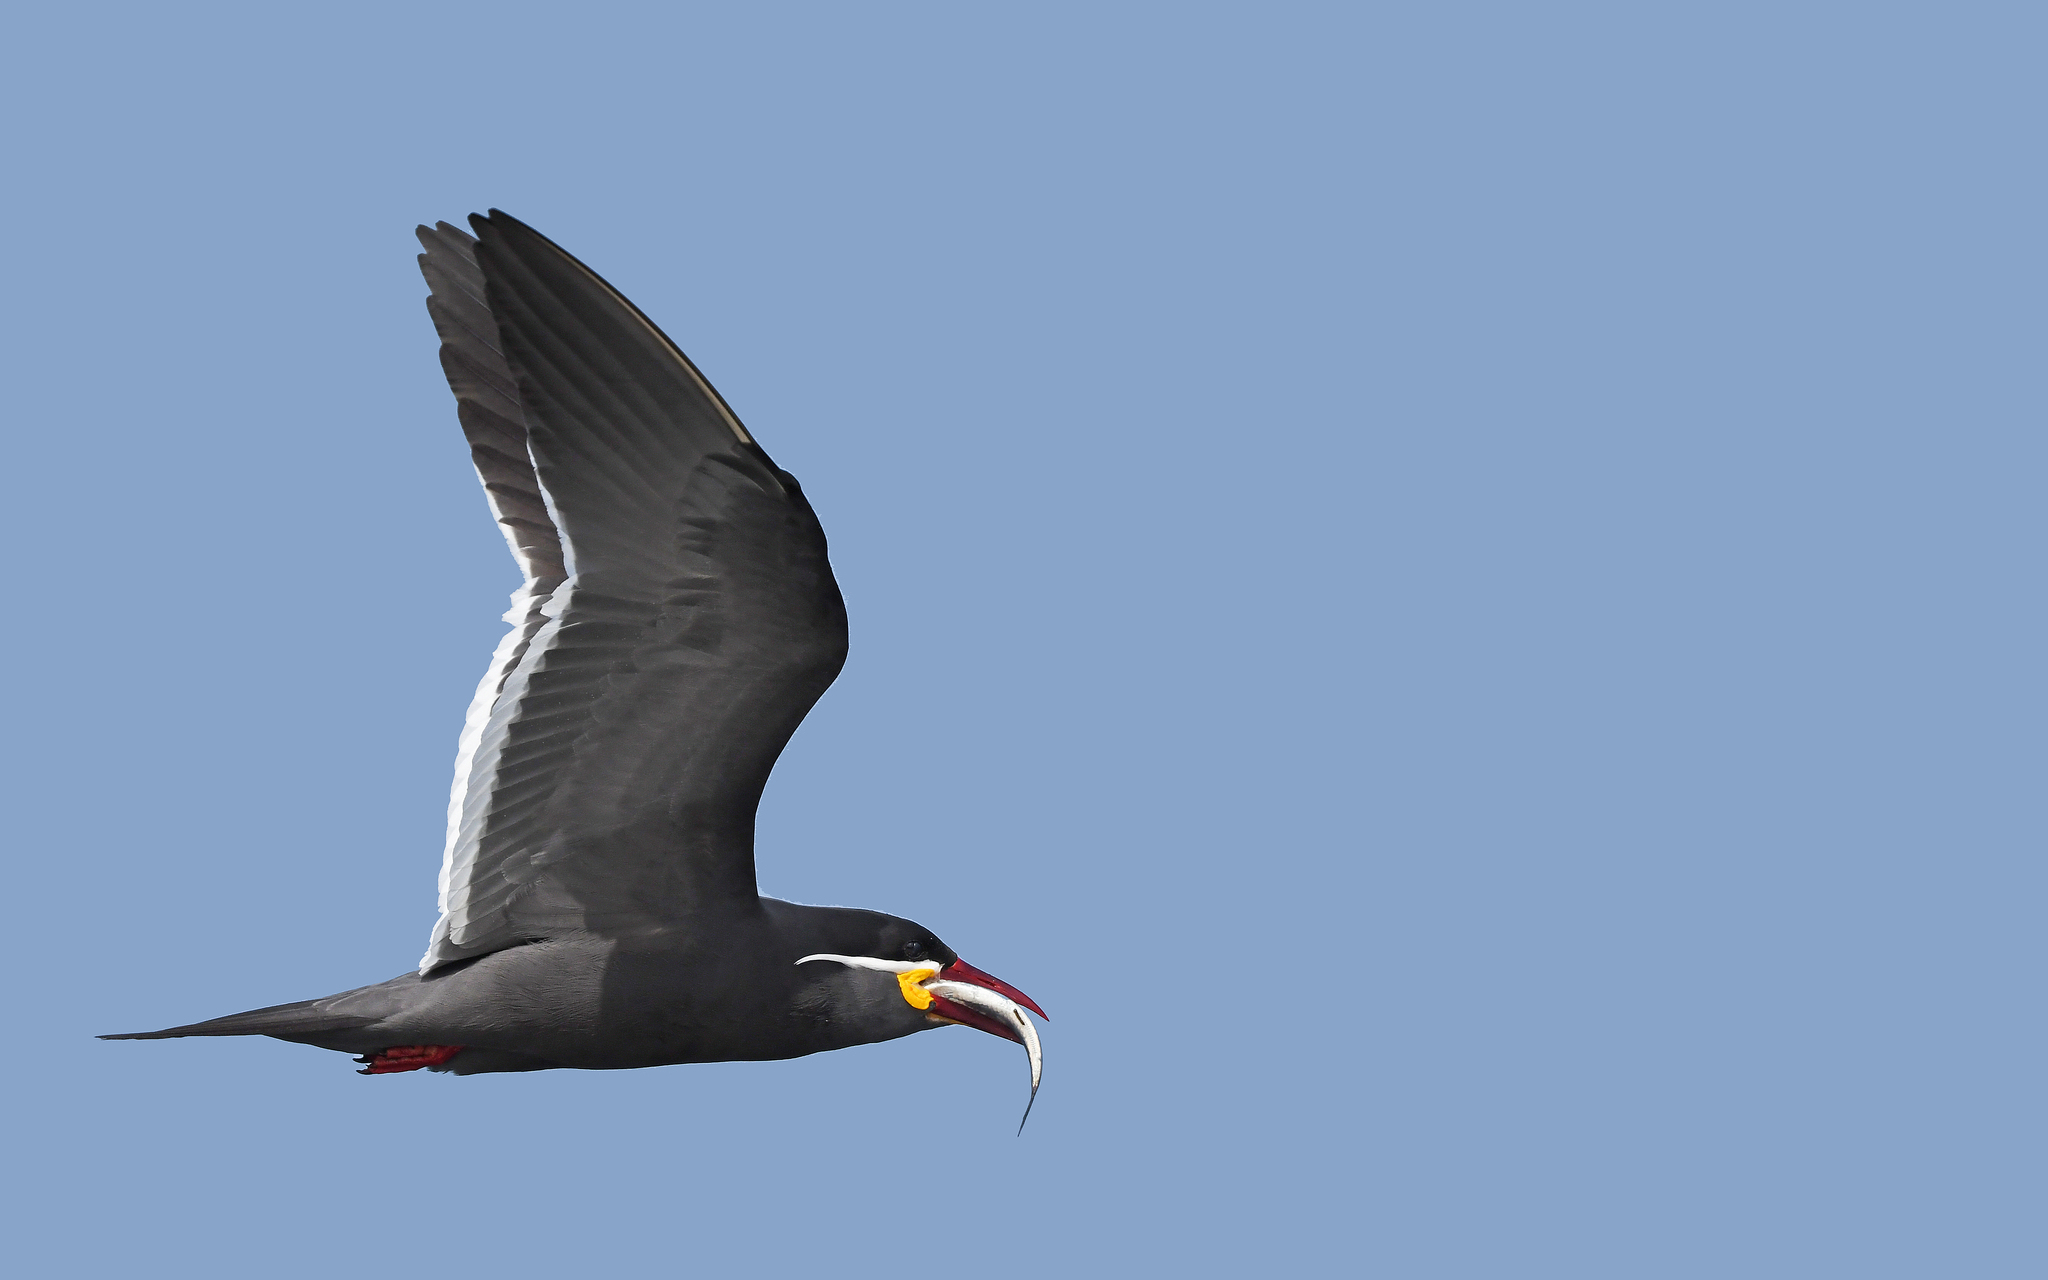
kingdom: Animalia
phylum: Chordata
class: Aves
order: Charadriiformes
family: Laridae
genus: Larosterna
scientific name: Larosterna inca
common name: Inca tern
